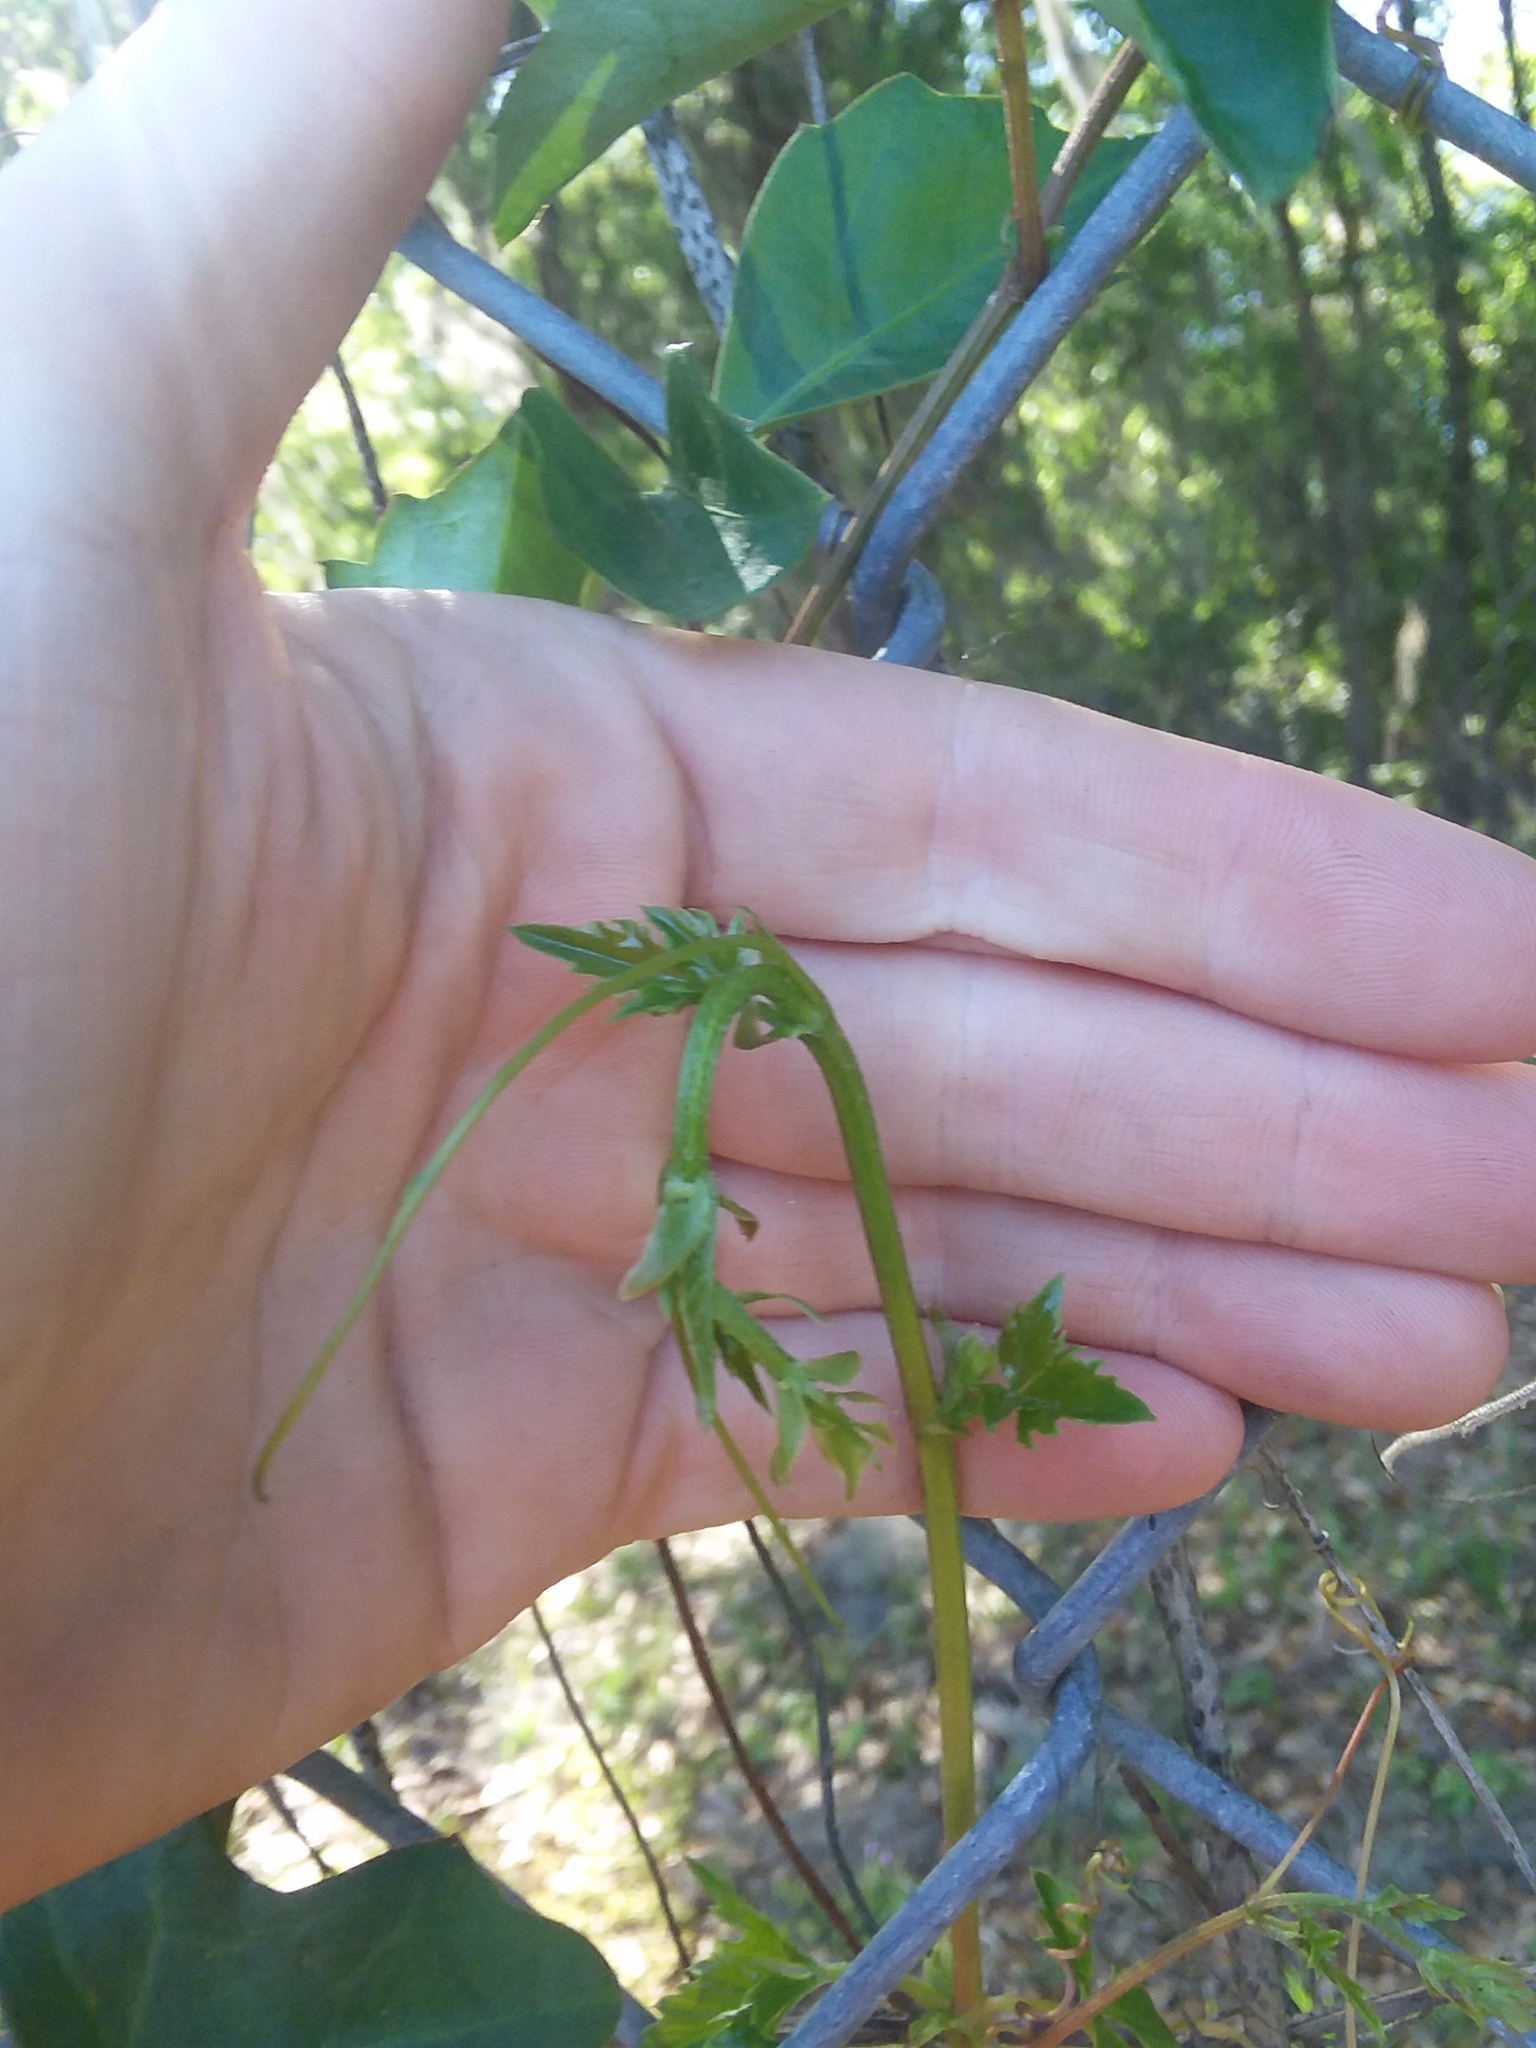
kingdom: Plantae
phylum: Tracheophyta
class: Magnoliopsida
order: Vitales
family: Vitaceae
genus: Cissus
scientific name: Cissus trifoliata
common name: Vine-sorrel
